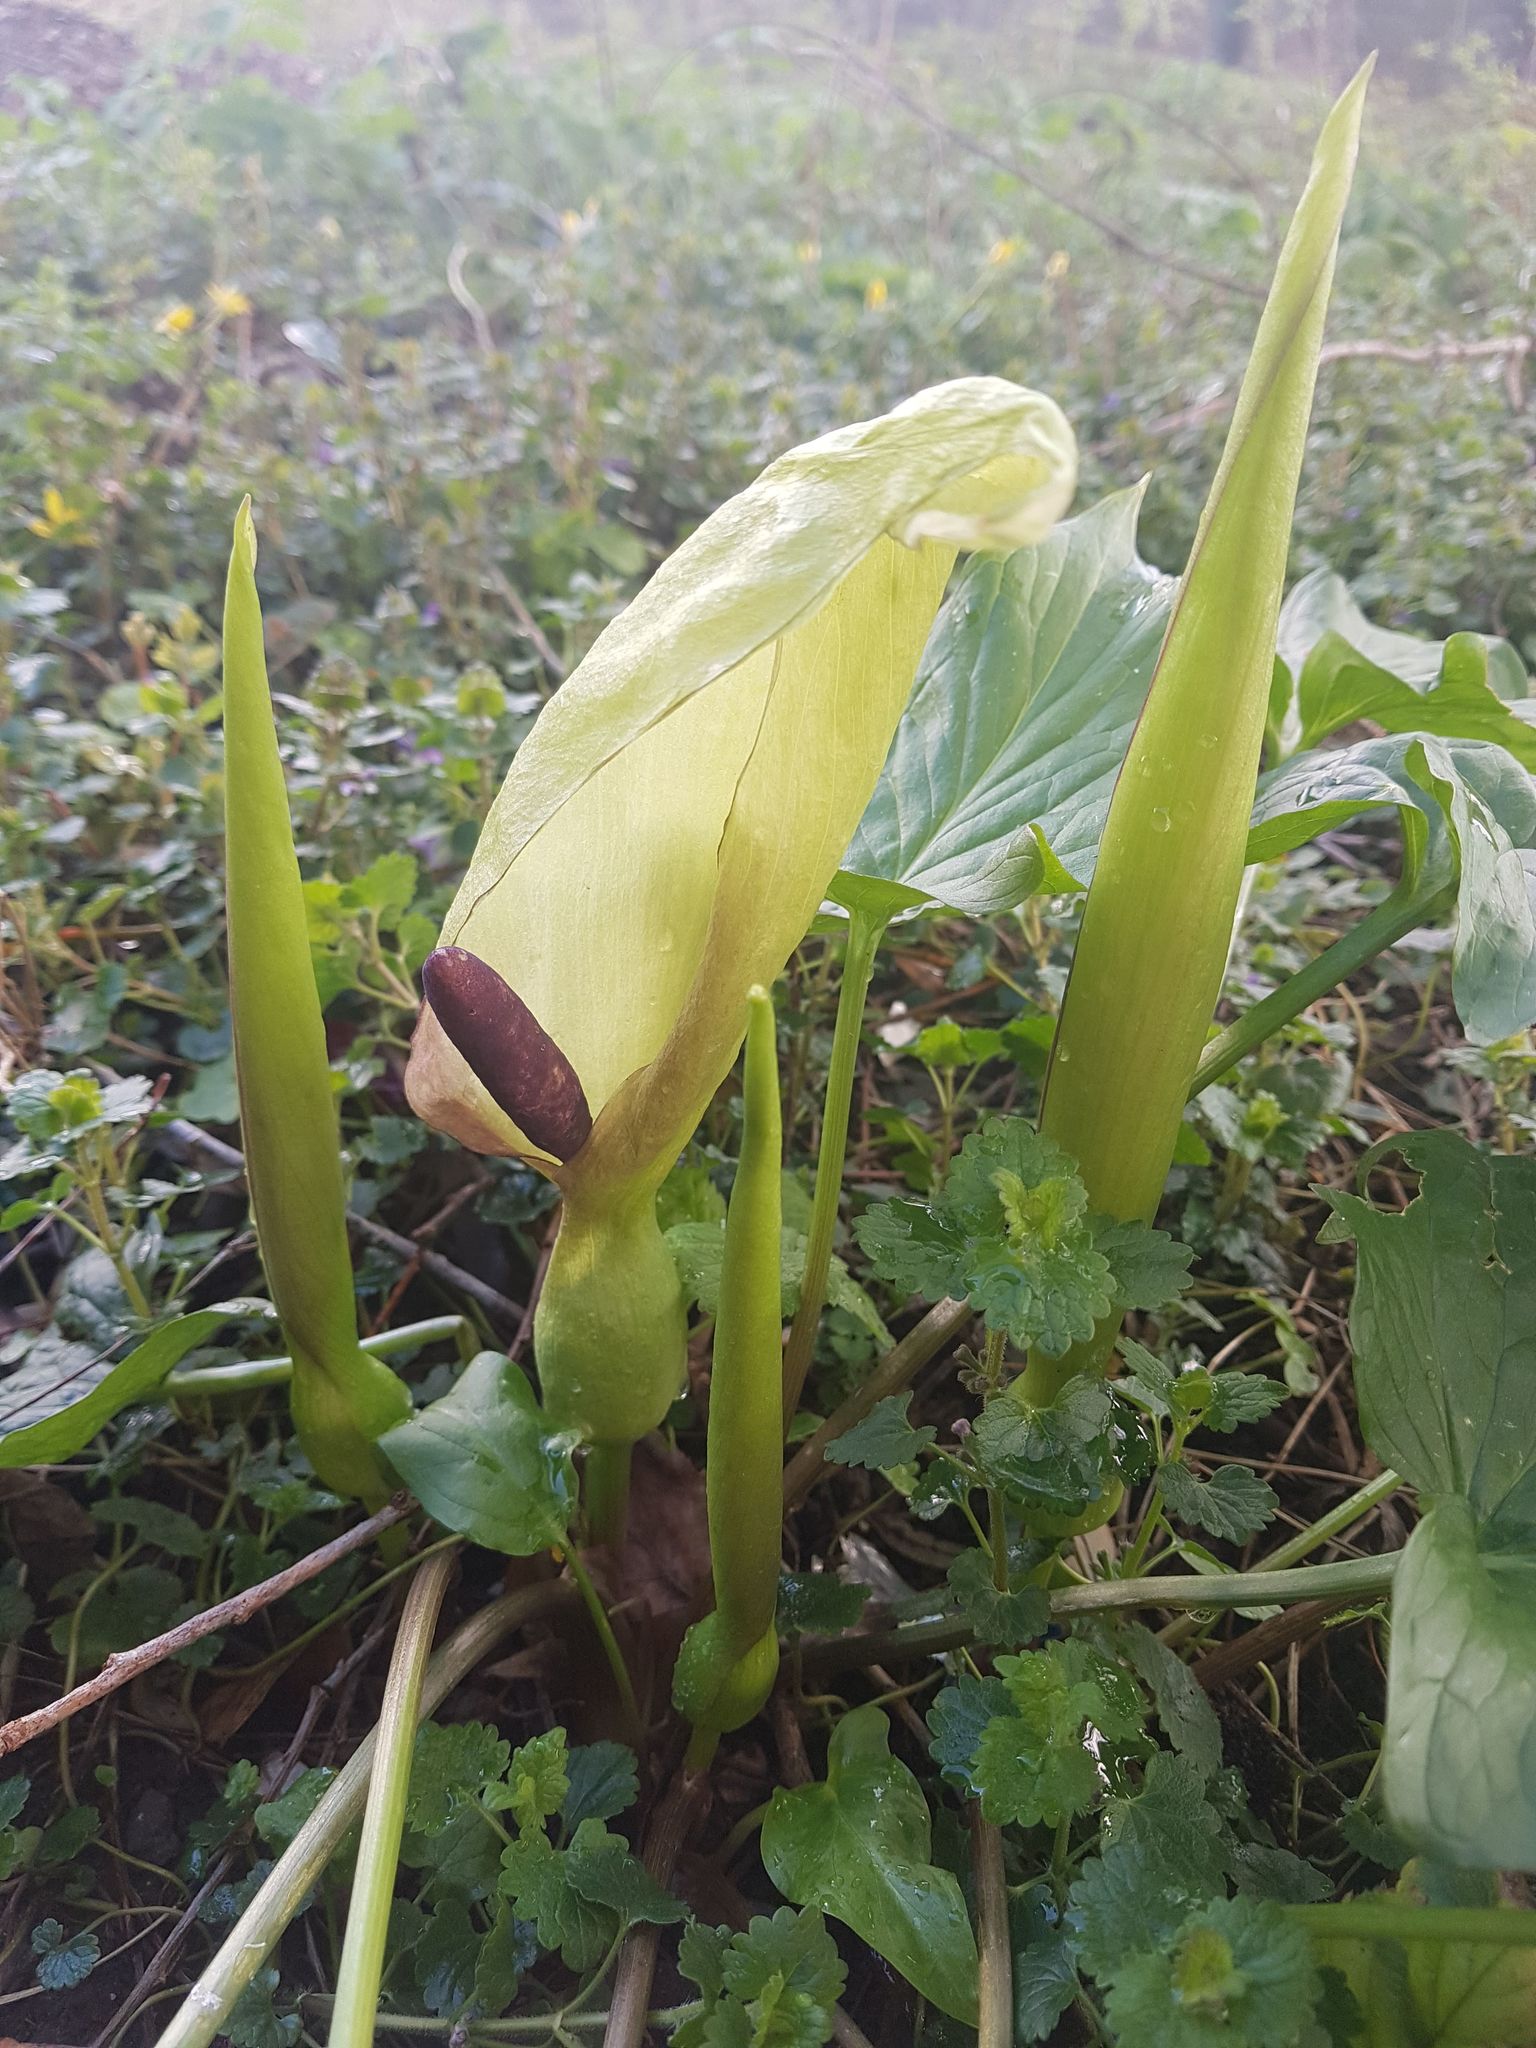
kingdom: Plantae
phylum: Tracheophyta
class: Liliopsida
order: Alismatales
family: Araceae
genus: Arum
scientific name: Arum maculatum
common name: Lords-and-ladies
